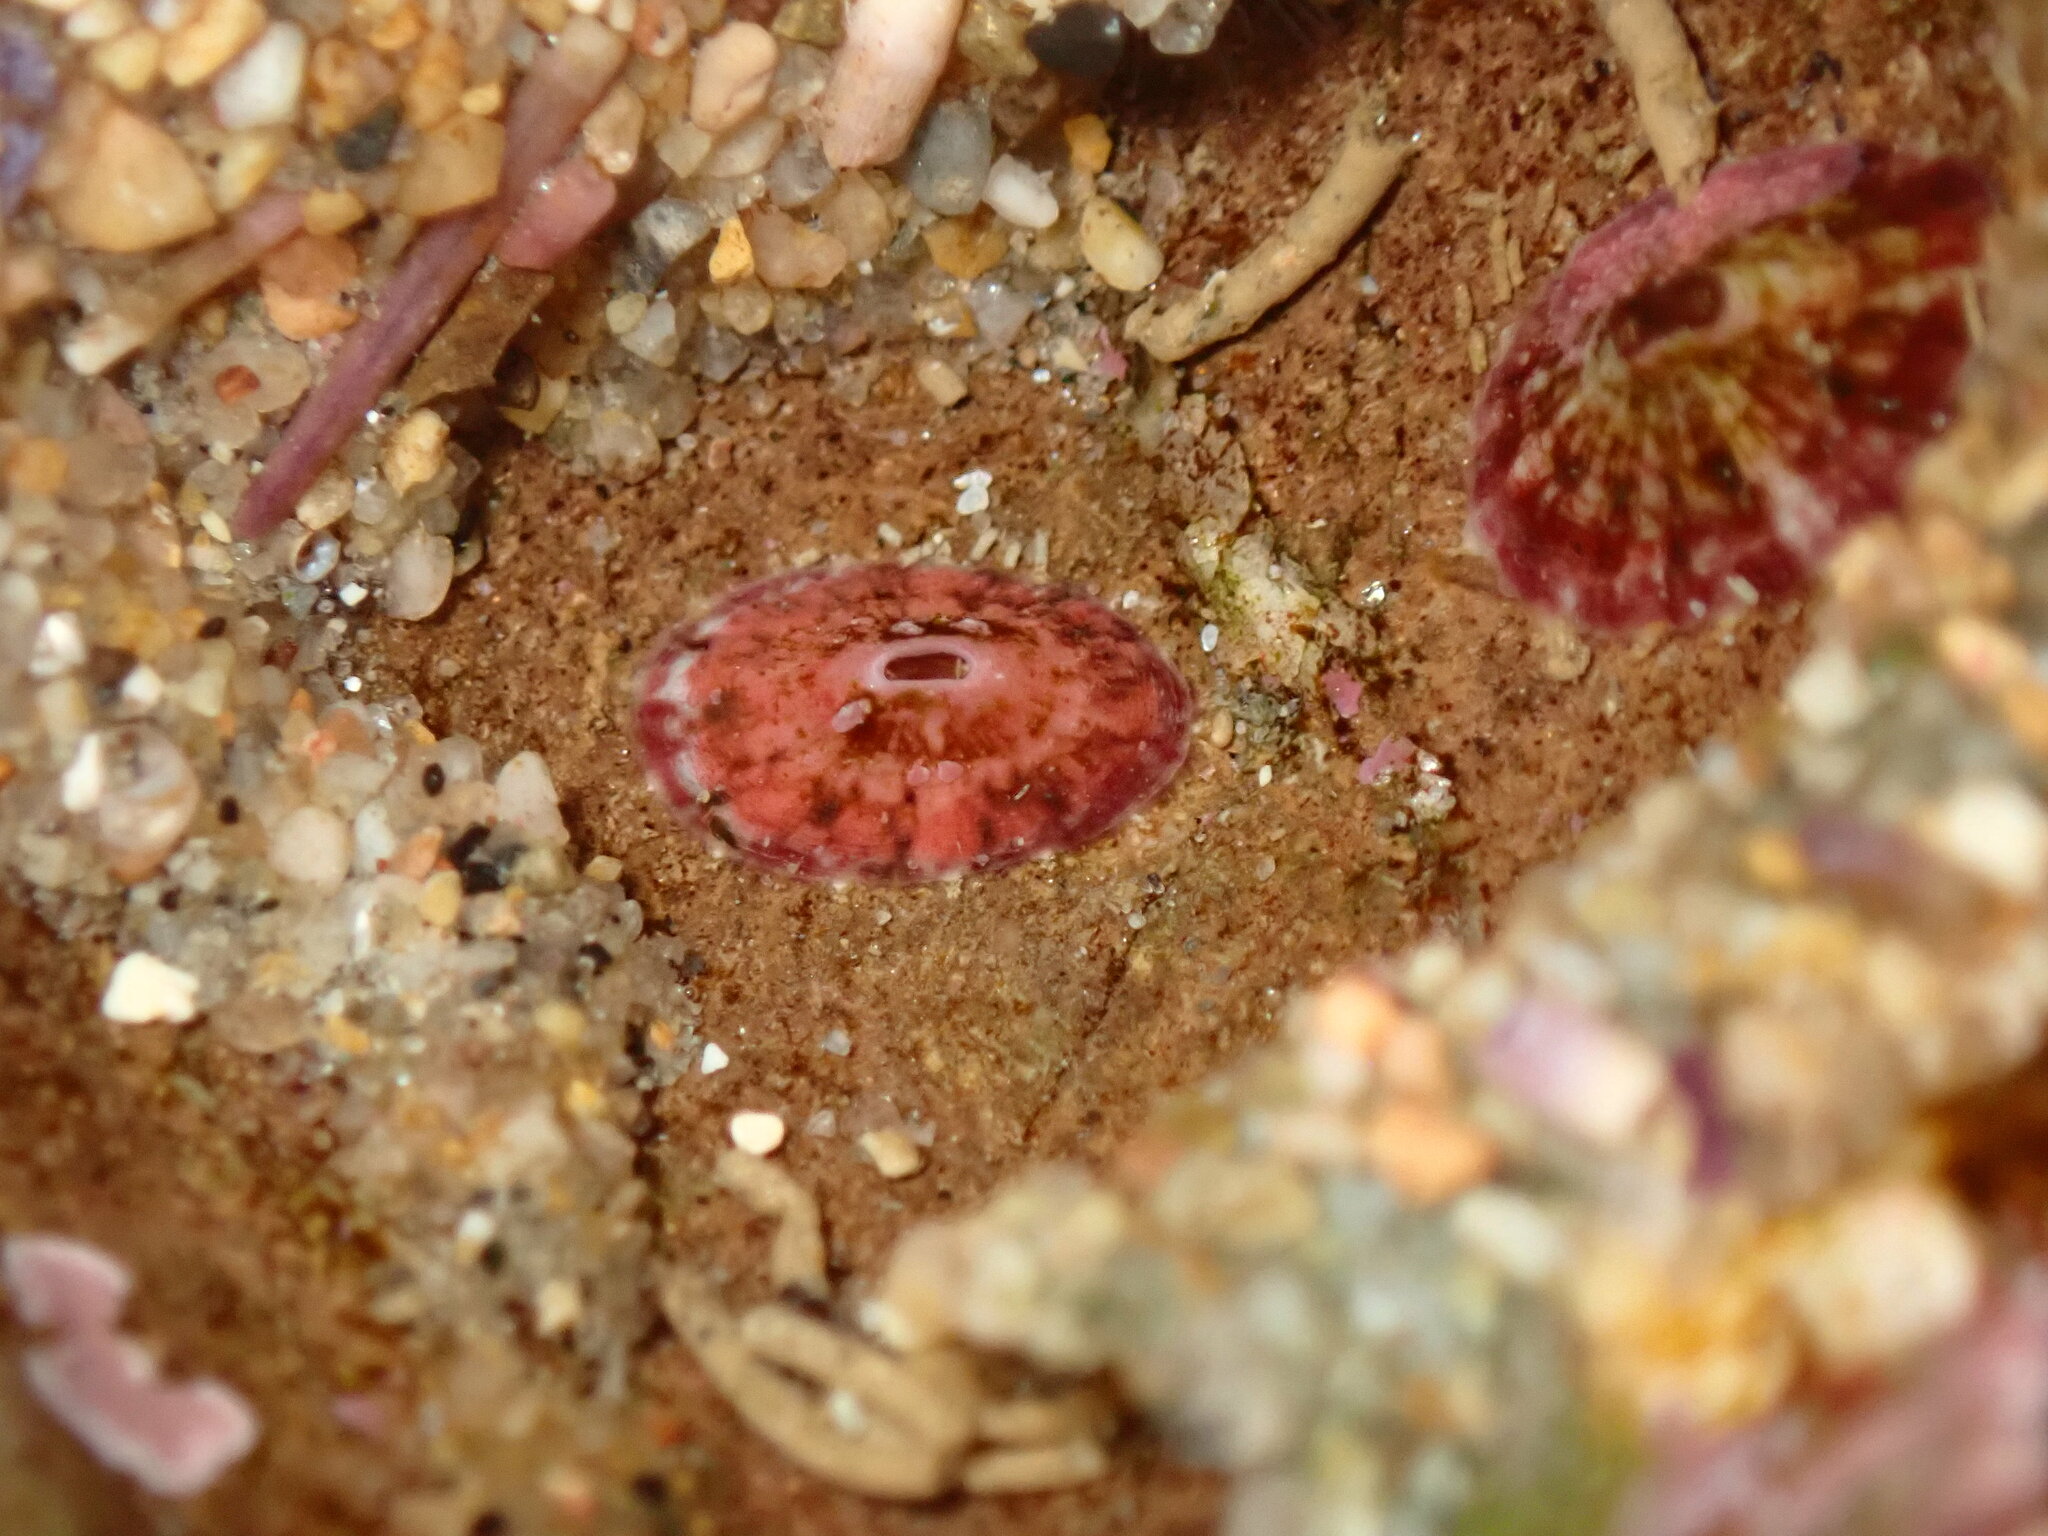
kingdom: Animalia
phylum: Mollusca
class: Gastropoda
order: Lepetellida
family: Fissurellidae
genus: Fissurella
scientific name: Fissurella volcano
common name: Volcano keyhole limpet
